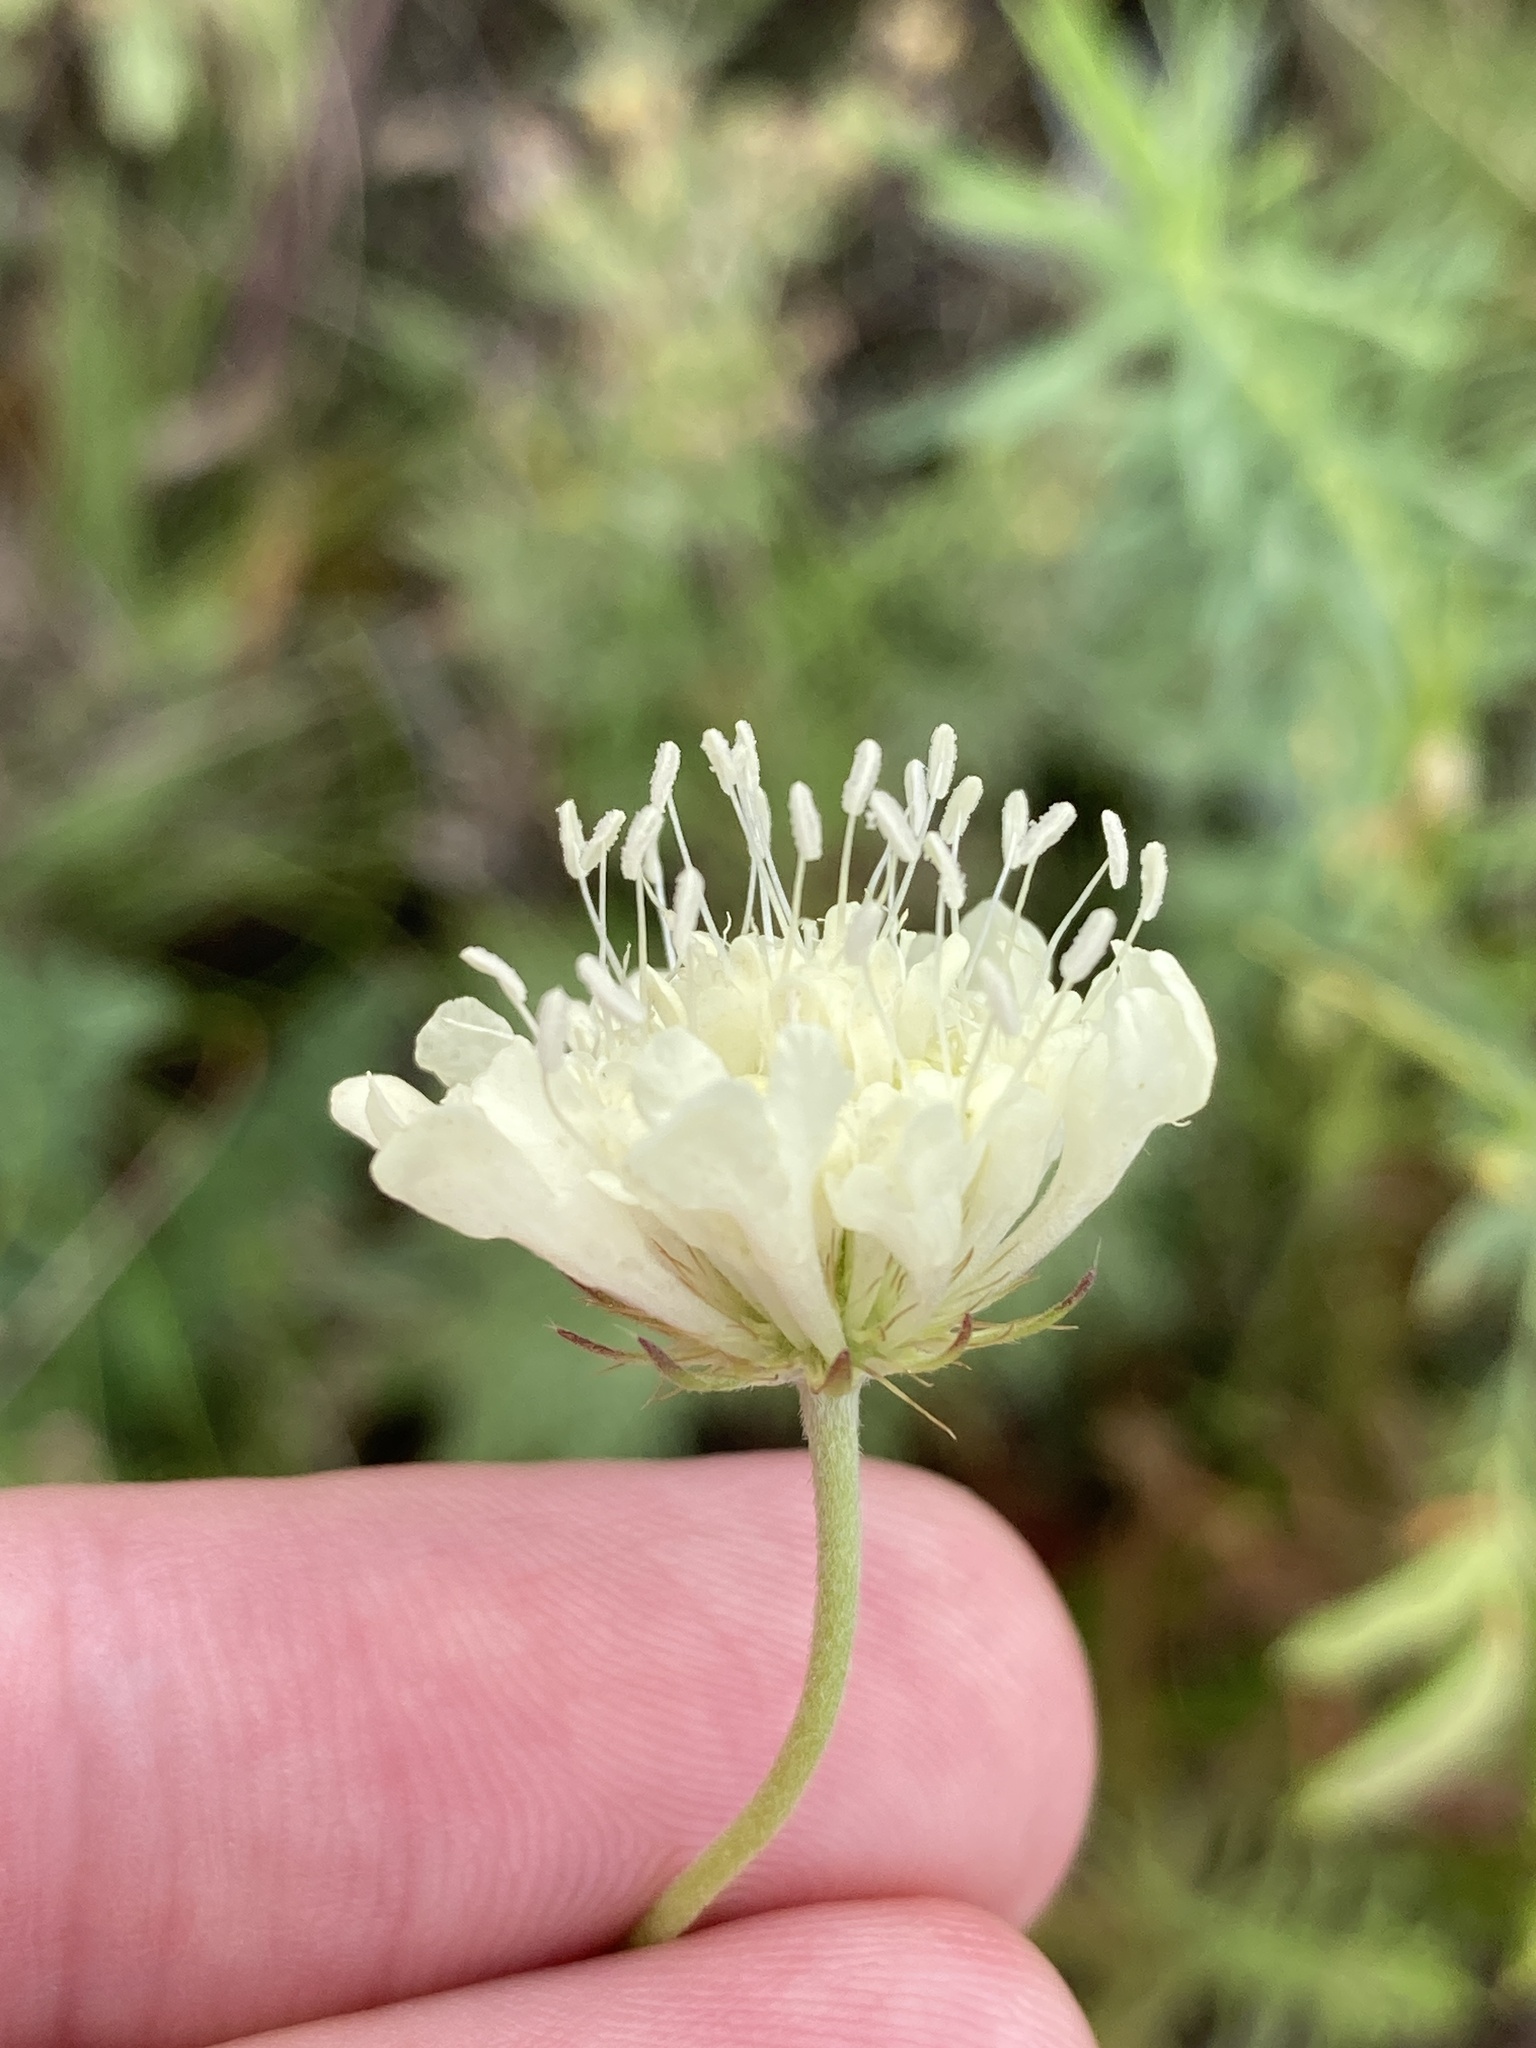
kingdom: Plantae
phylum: Tracheophyta
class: Magnoliopsida
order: Dipsacales
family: Caprifoliaceae
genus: Scabiosa
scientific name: Scabiosa ochroleuca
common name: Cream pincushions
